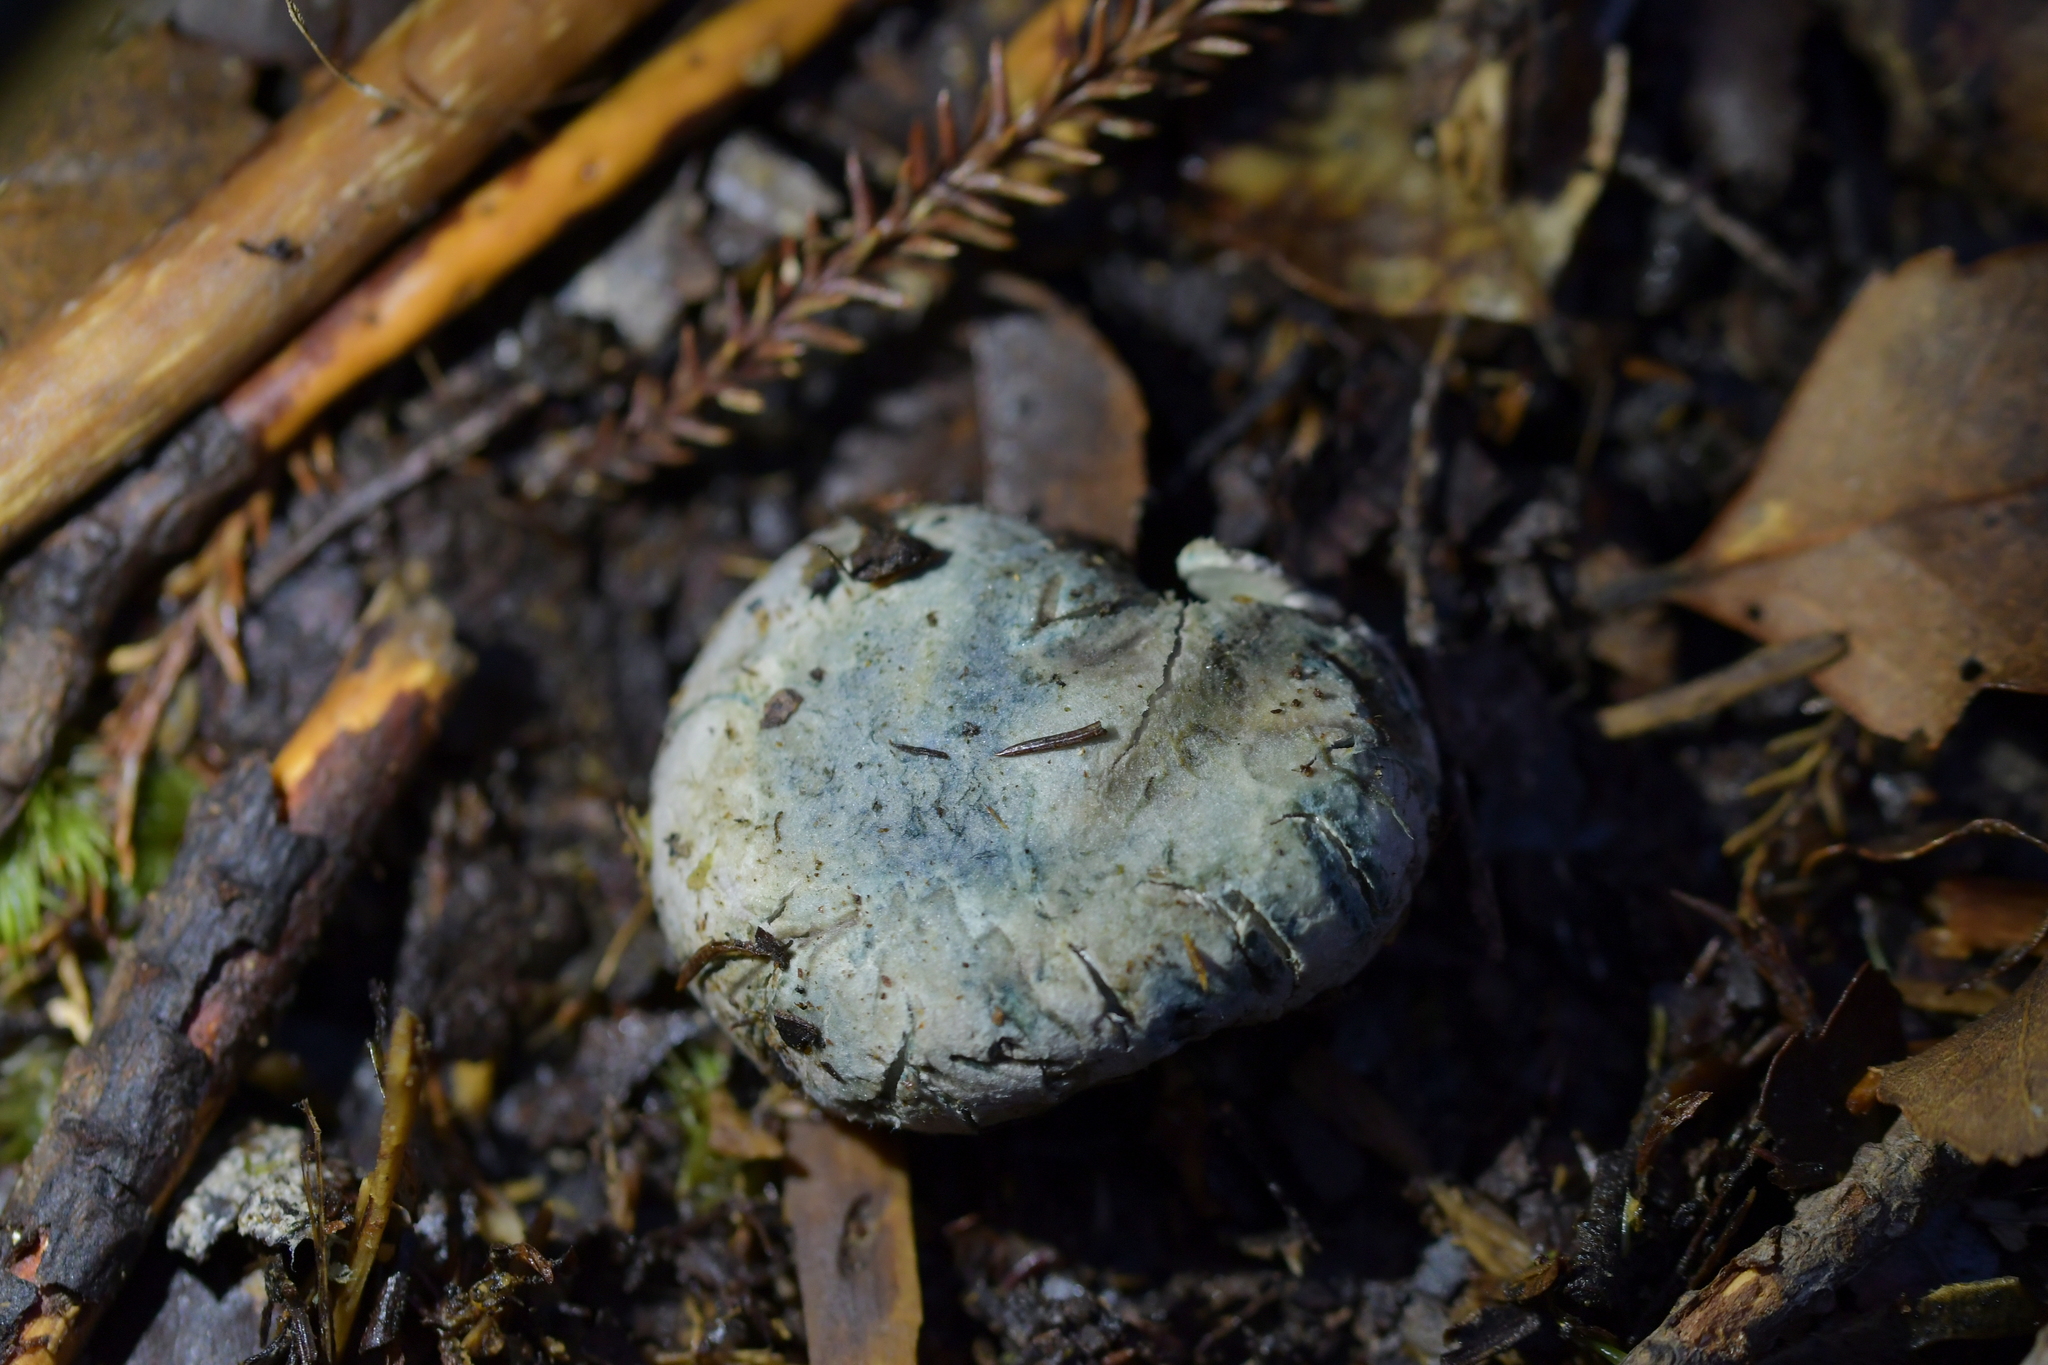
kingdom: Fungi
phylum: Basidiomycota
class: Agaricomycetes
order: Boletales
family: Boletaceae
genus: Leccinum
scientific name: Leccinum pachyderme
